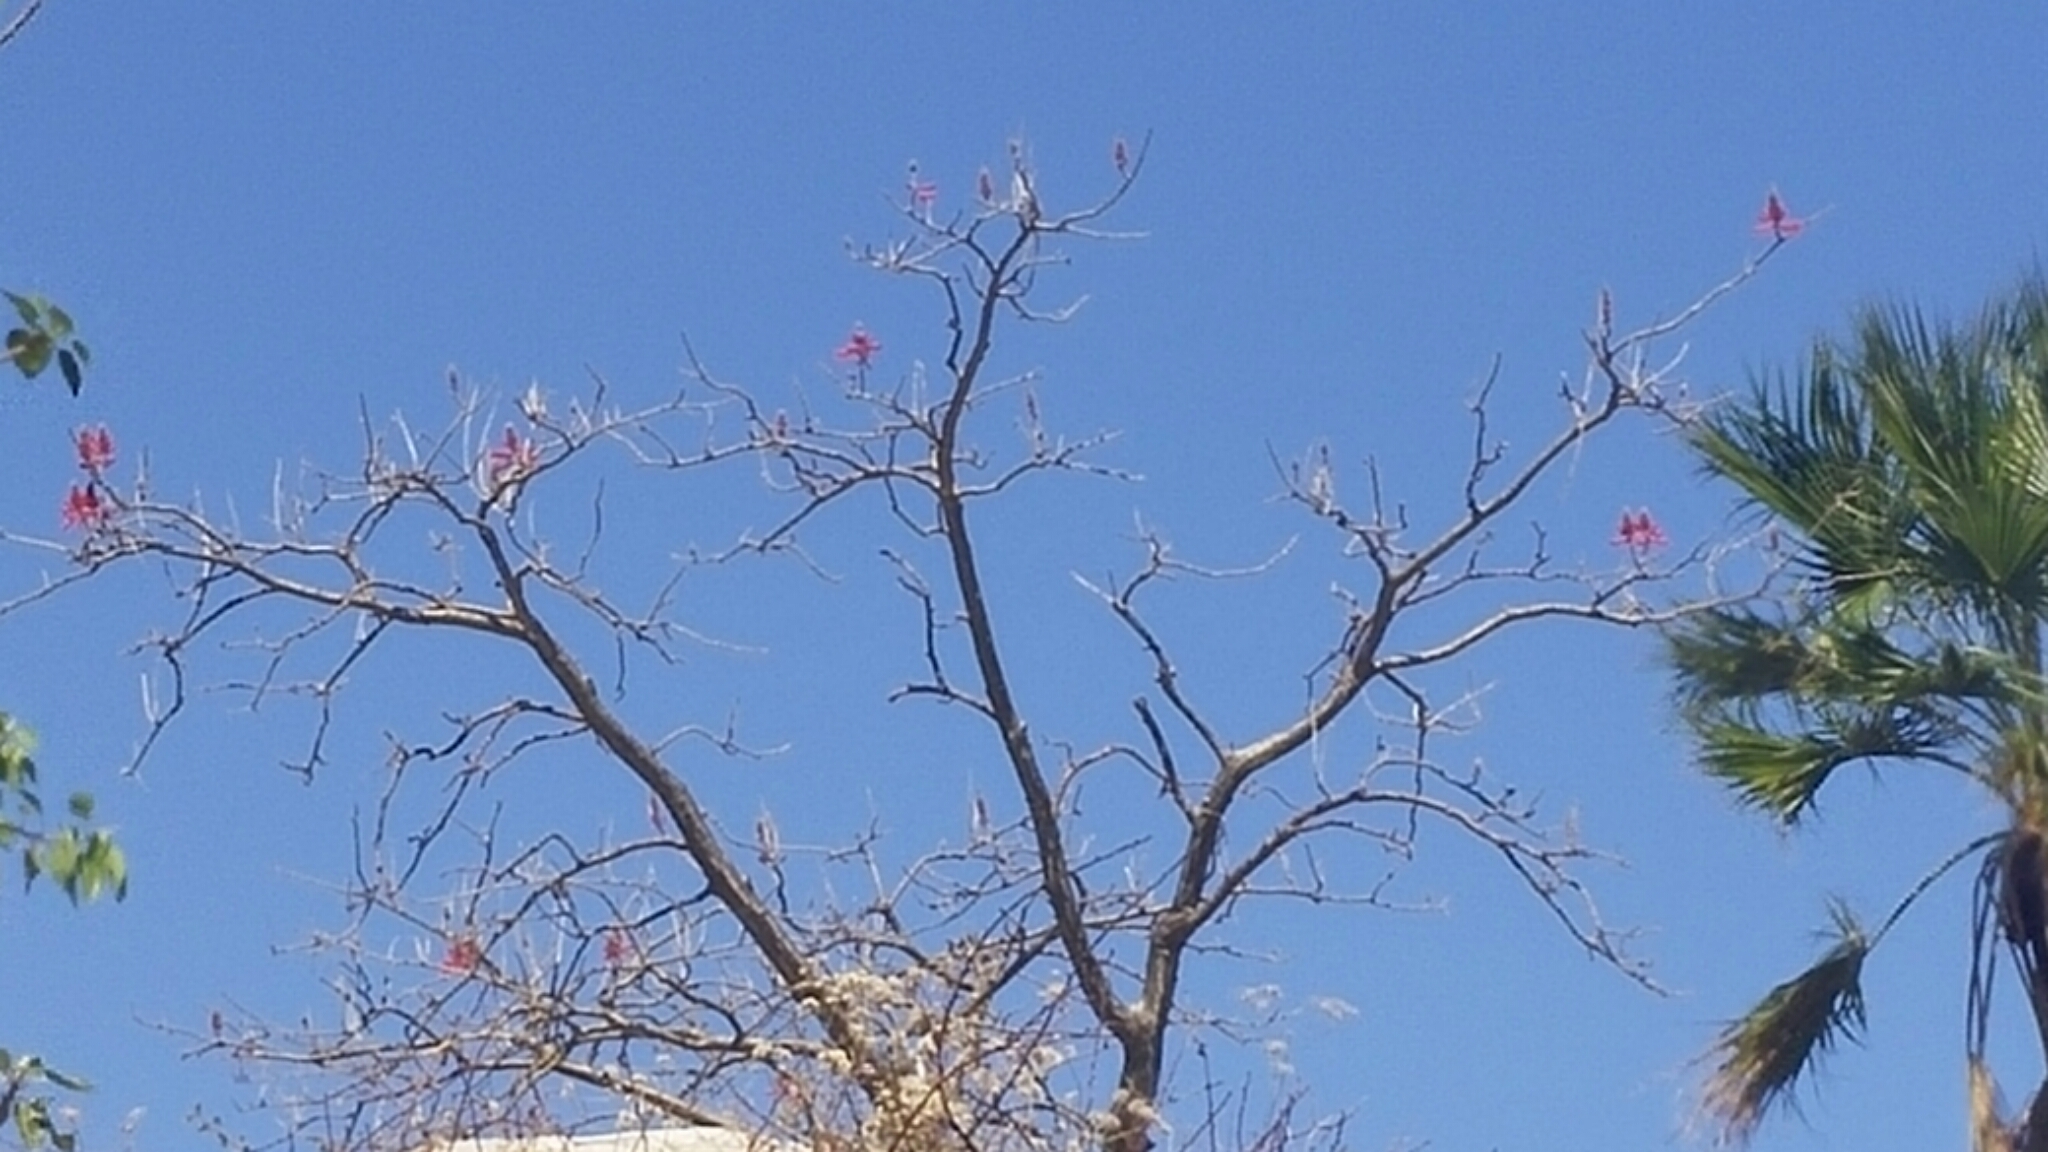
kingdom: Plantae
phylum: Tracheophyta
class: Magnoliopsida
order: Fabales
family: Fabaceae
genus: Erythrina
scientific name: Erythrina flabelliformis
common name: Chilicote
